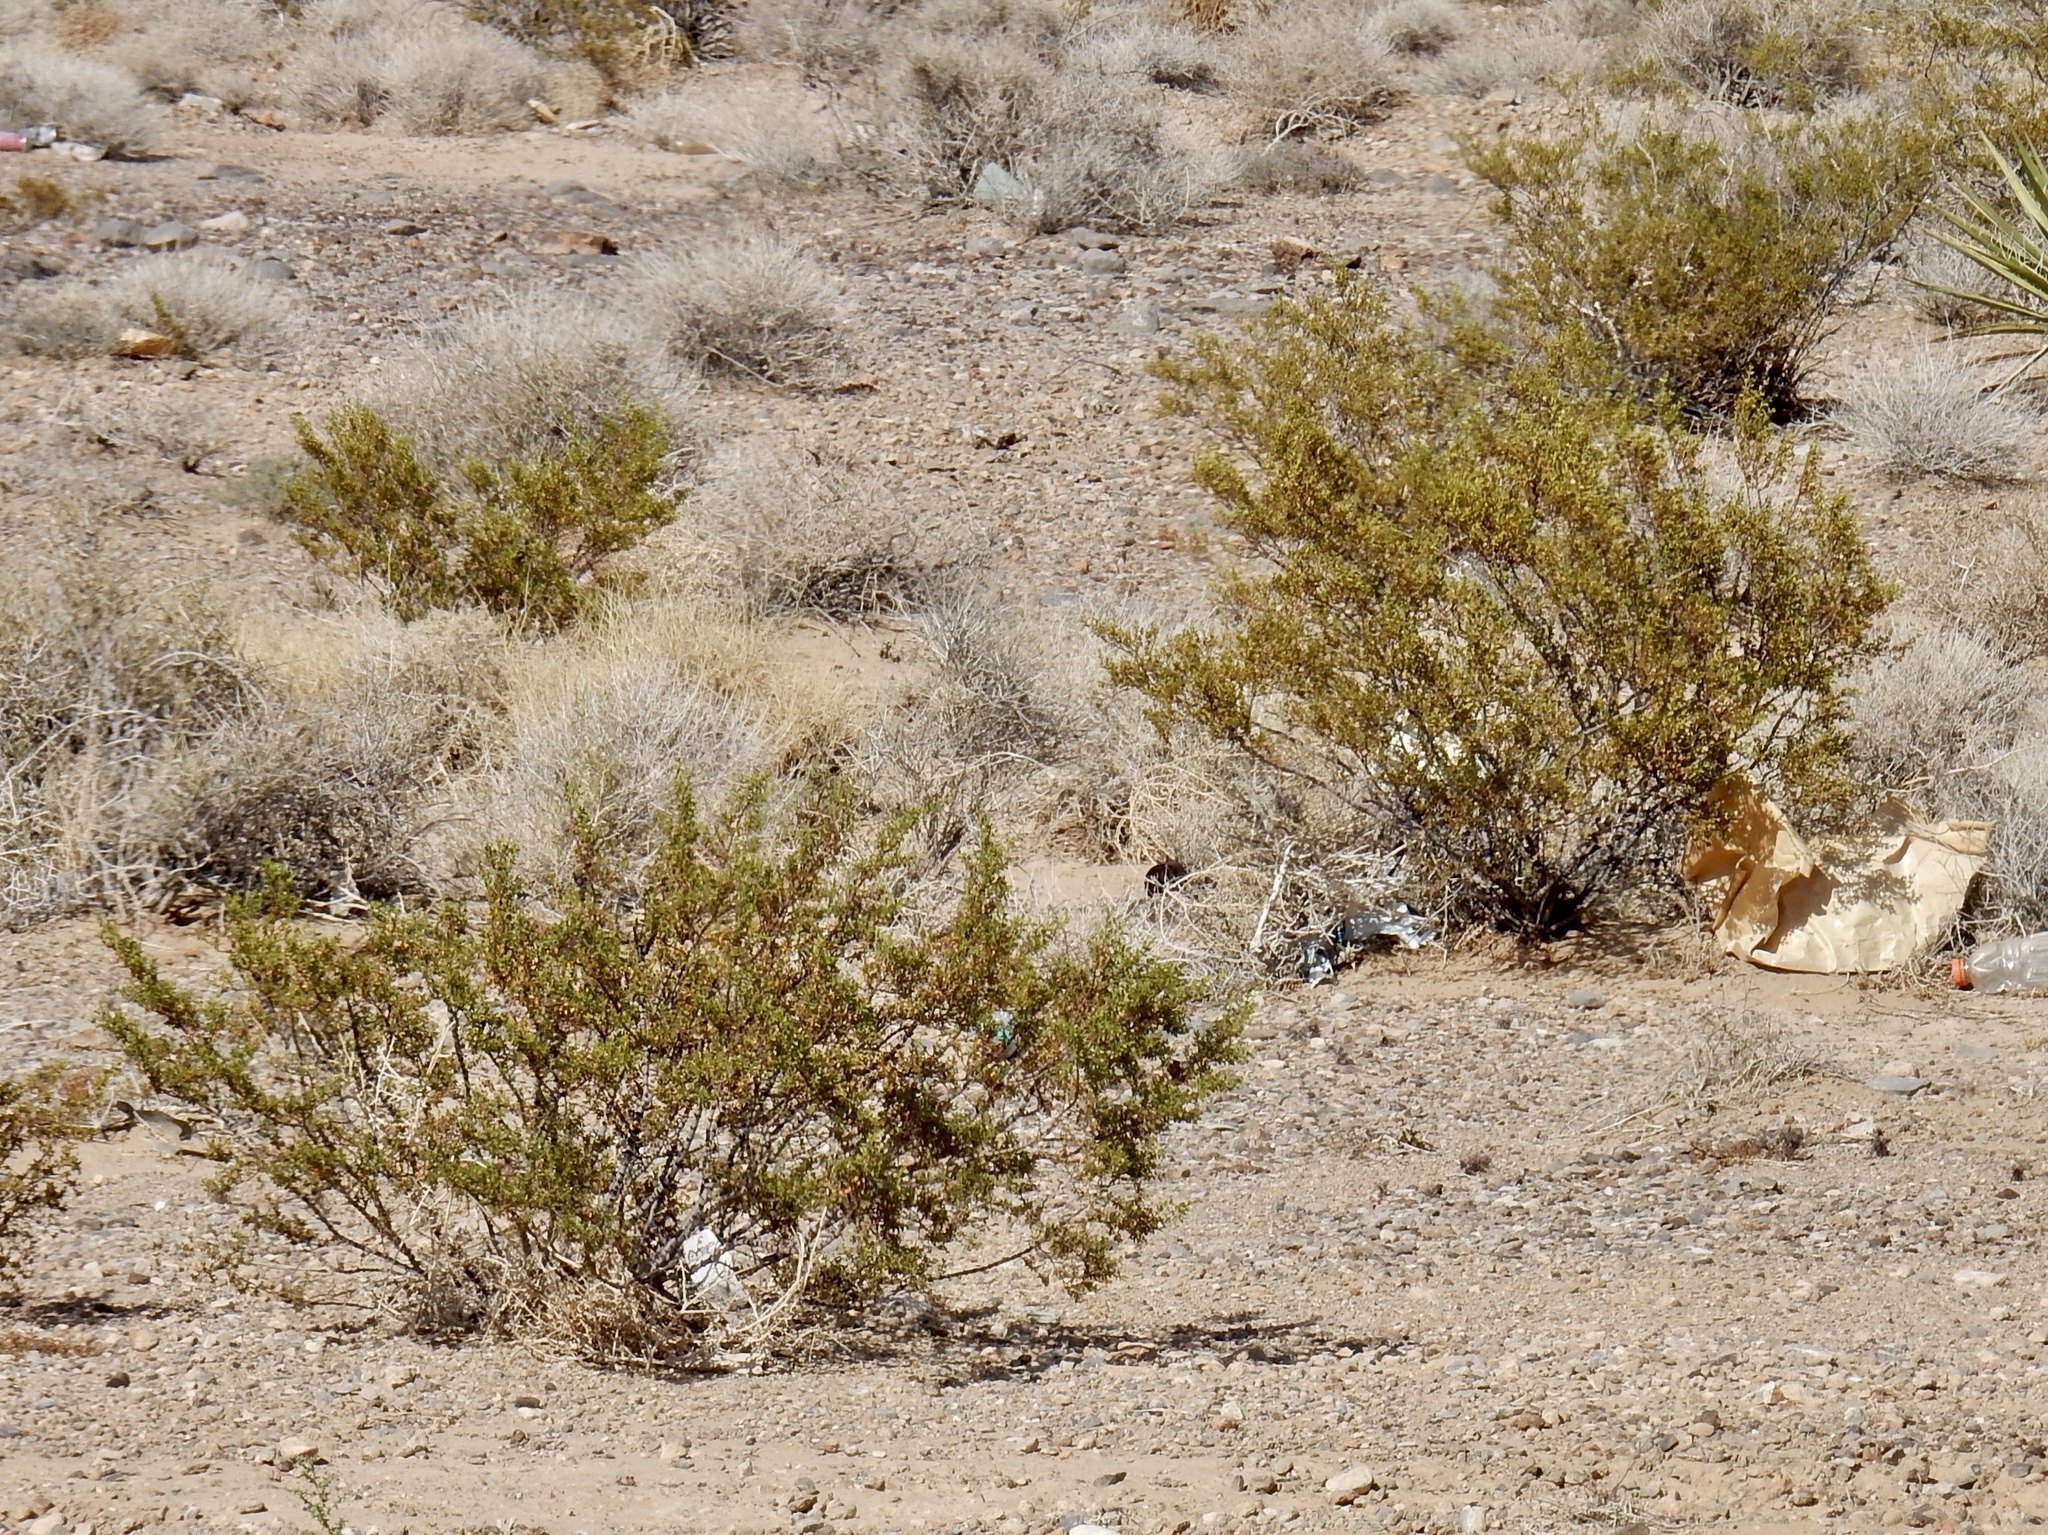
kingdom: Plantae
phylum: Tracheophyta
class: Magnoliopsida
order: Zygophyllales
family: Zygophyllaceae
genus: Larrea
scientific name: Larrea tridentata
